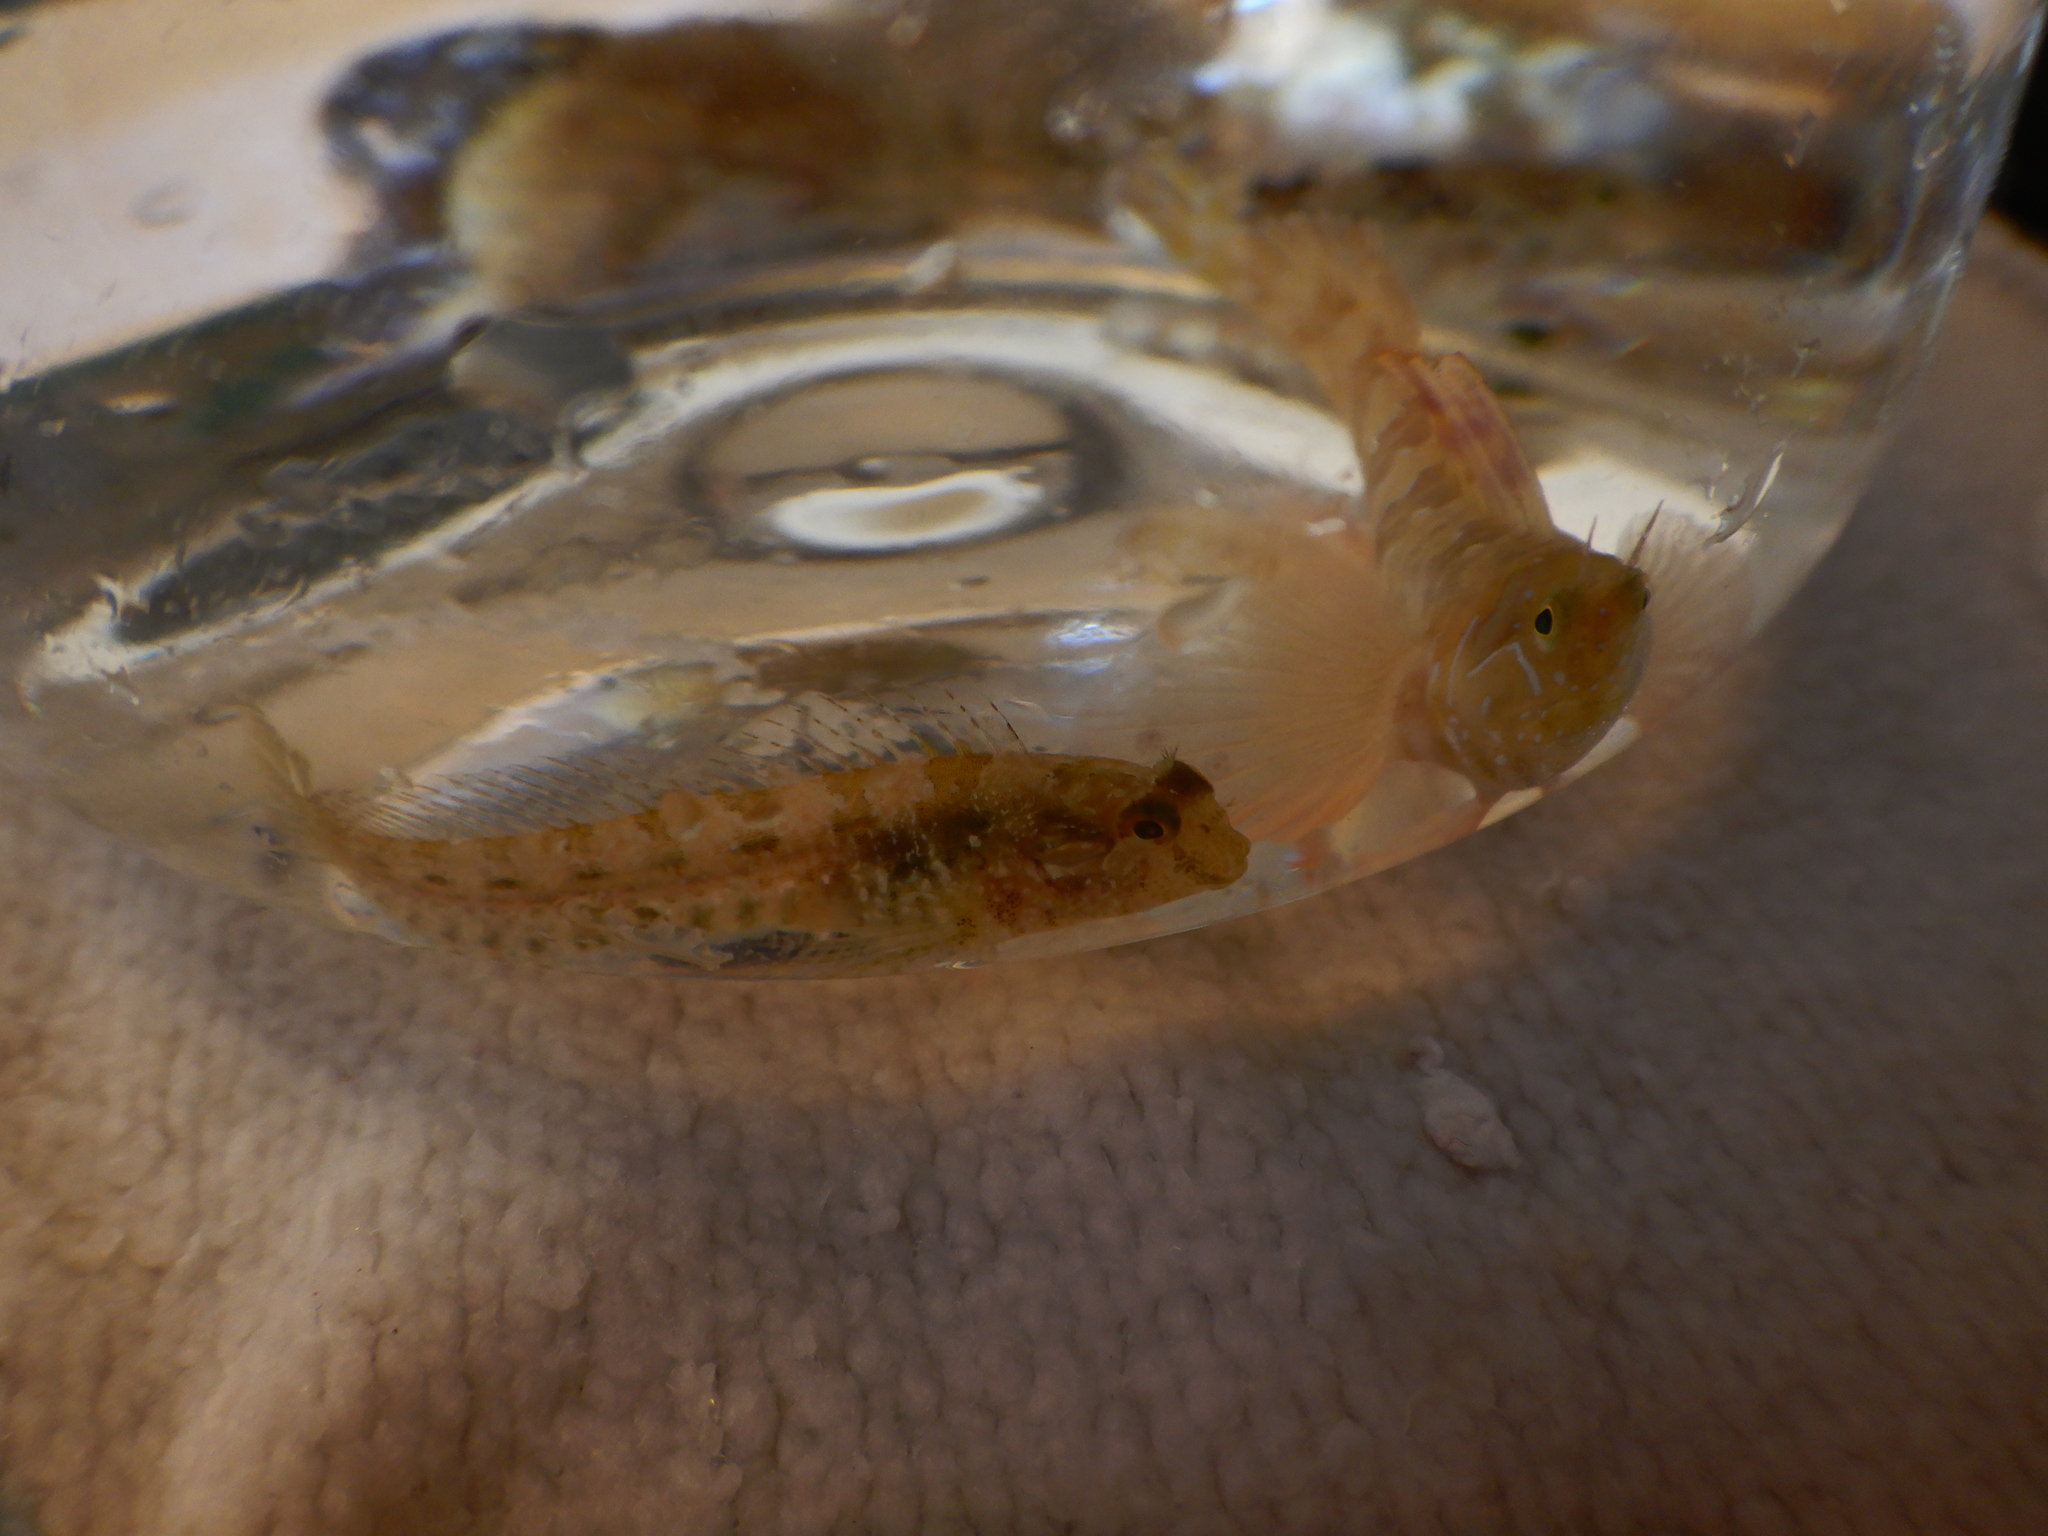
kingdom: Animalia
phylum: Chordata
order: Perciformes
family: Blenniidae
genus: Parablennius
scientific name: Parablennius incognitus
